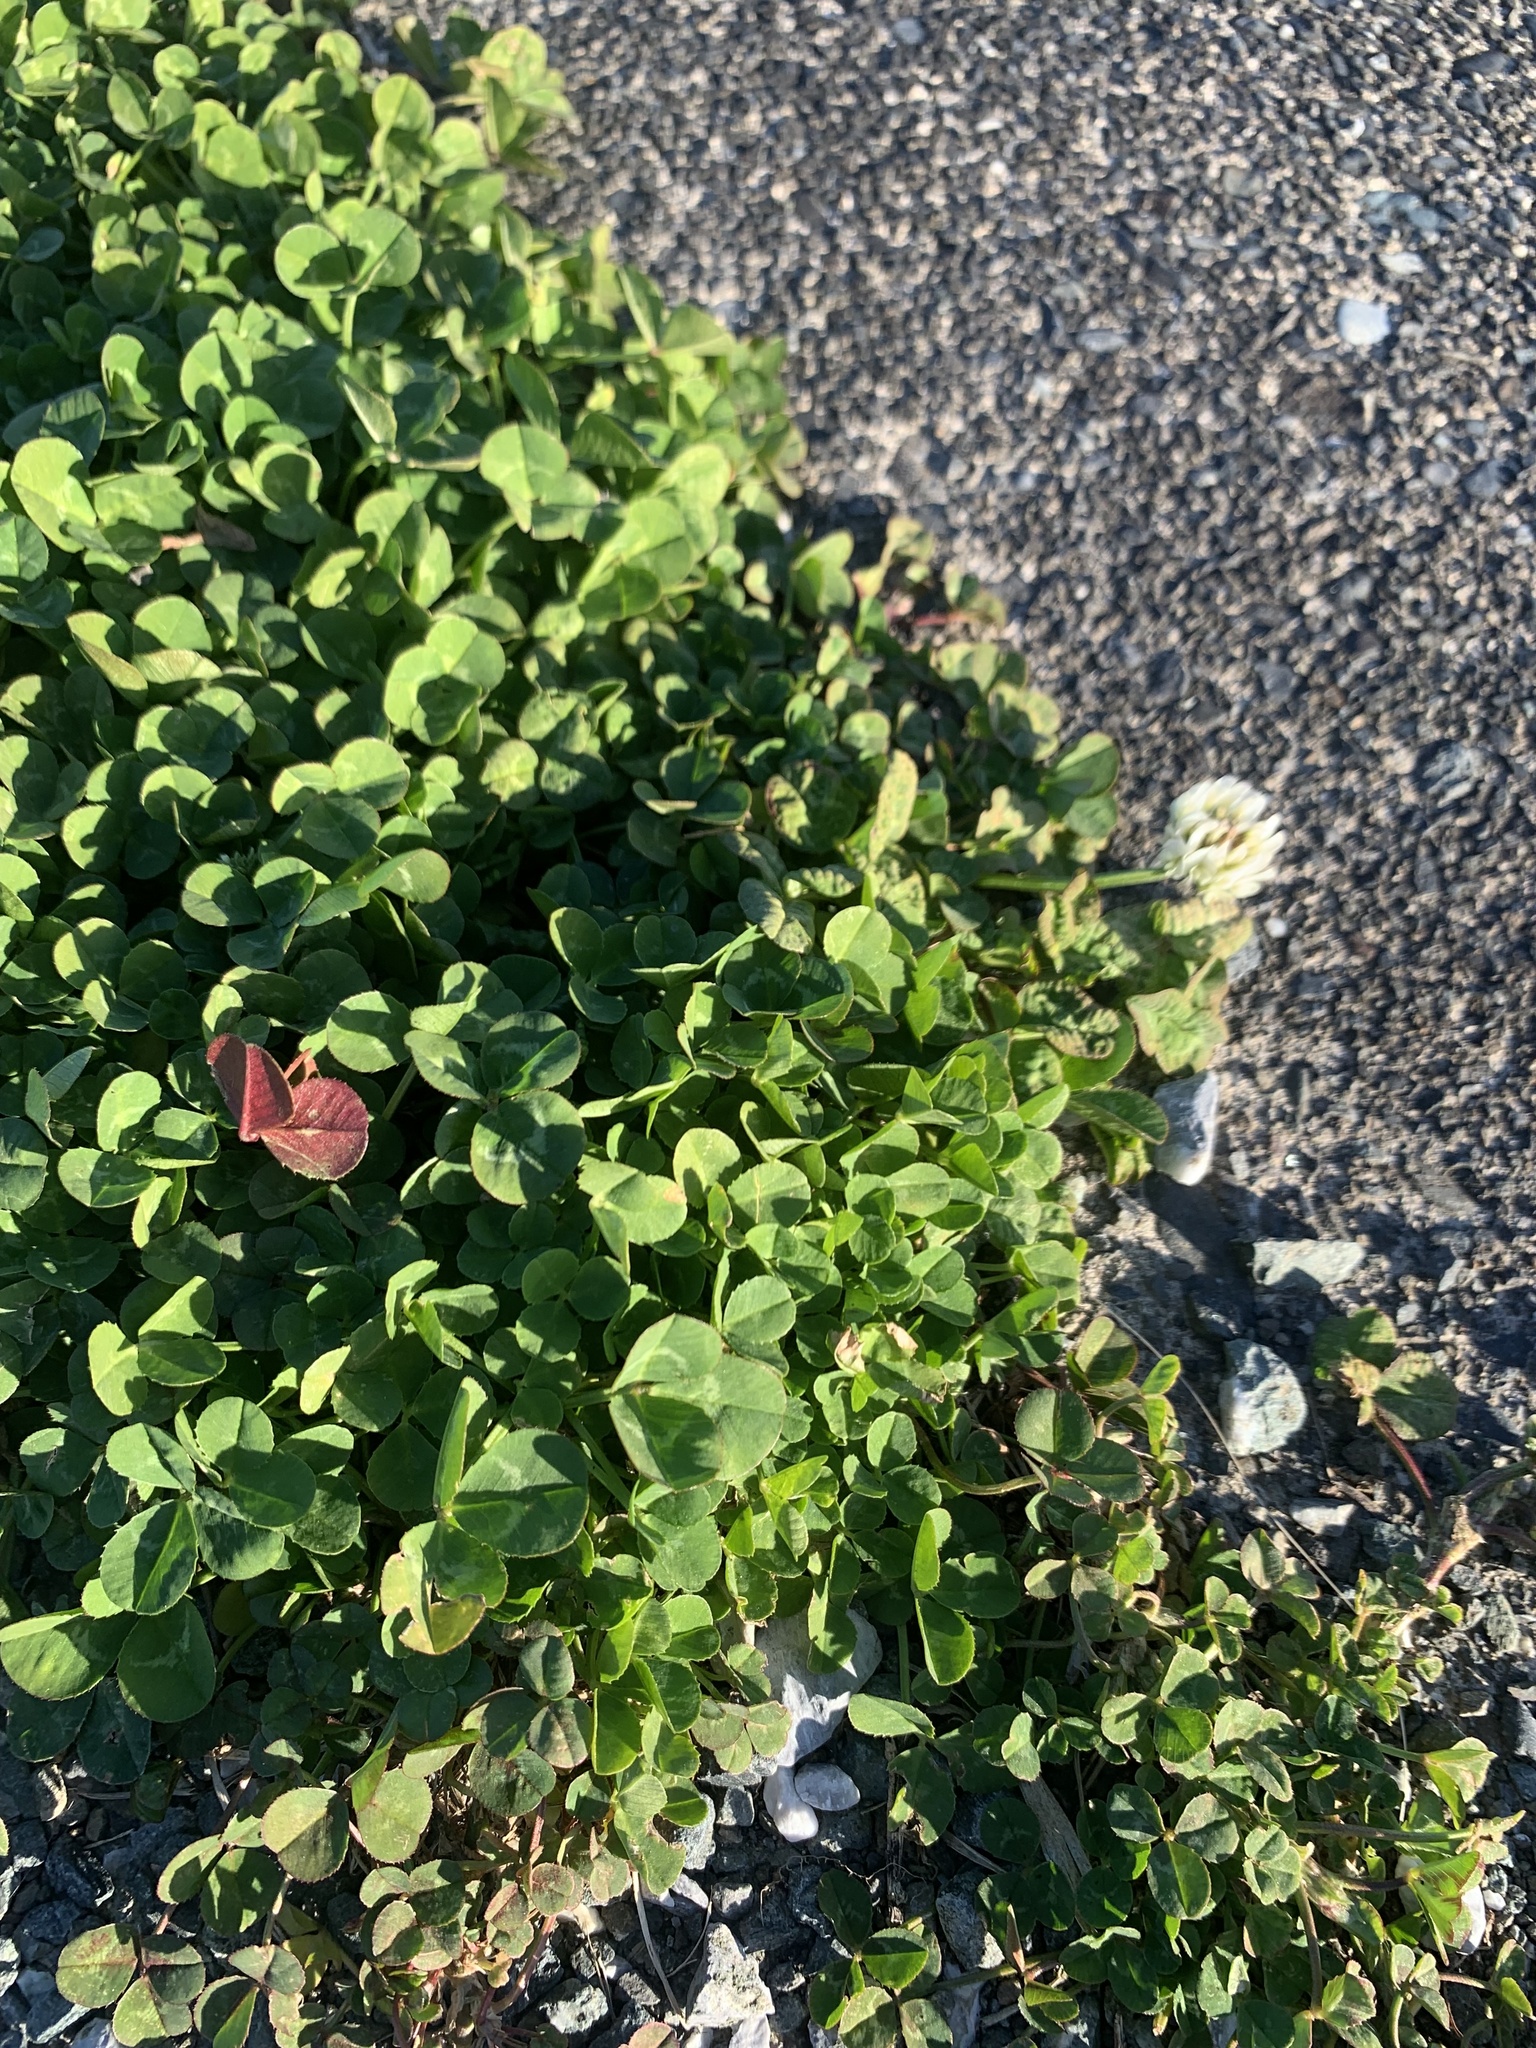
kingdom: Plantae
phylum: Tracheophyta
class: Magnoliopsida
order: Fabales
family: Fabaceae
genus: Trifolium
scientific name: Trifolium repens
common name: White clover
